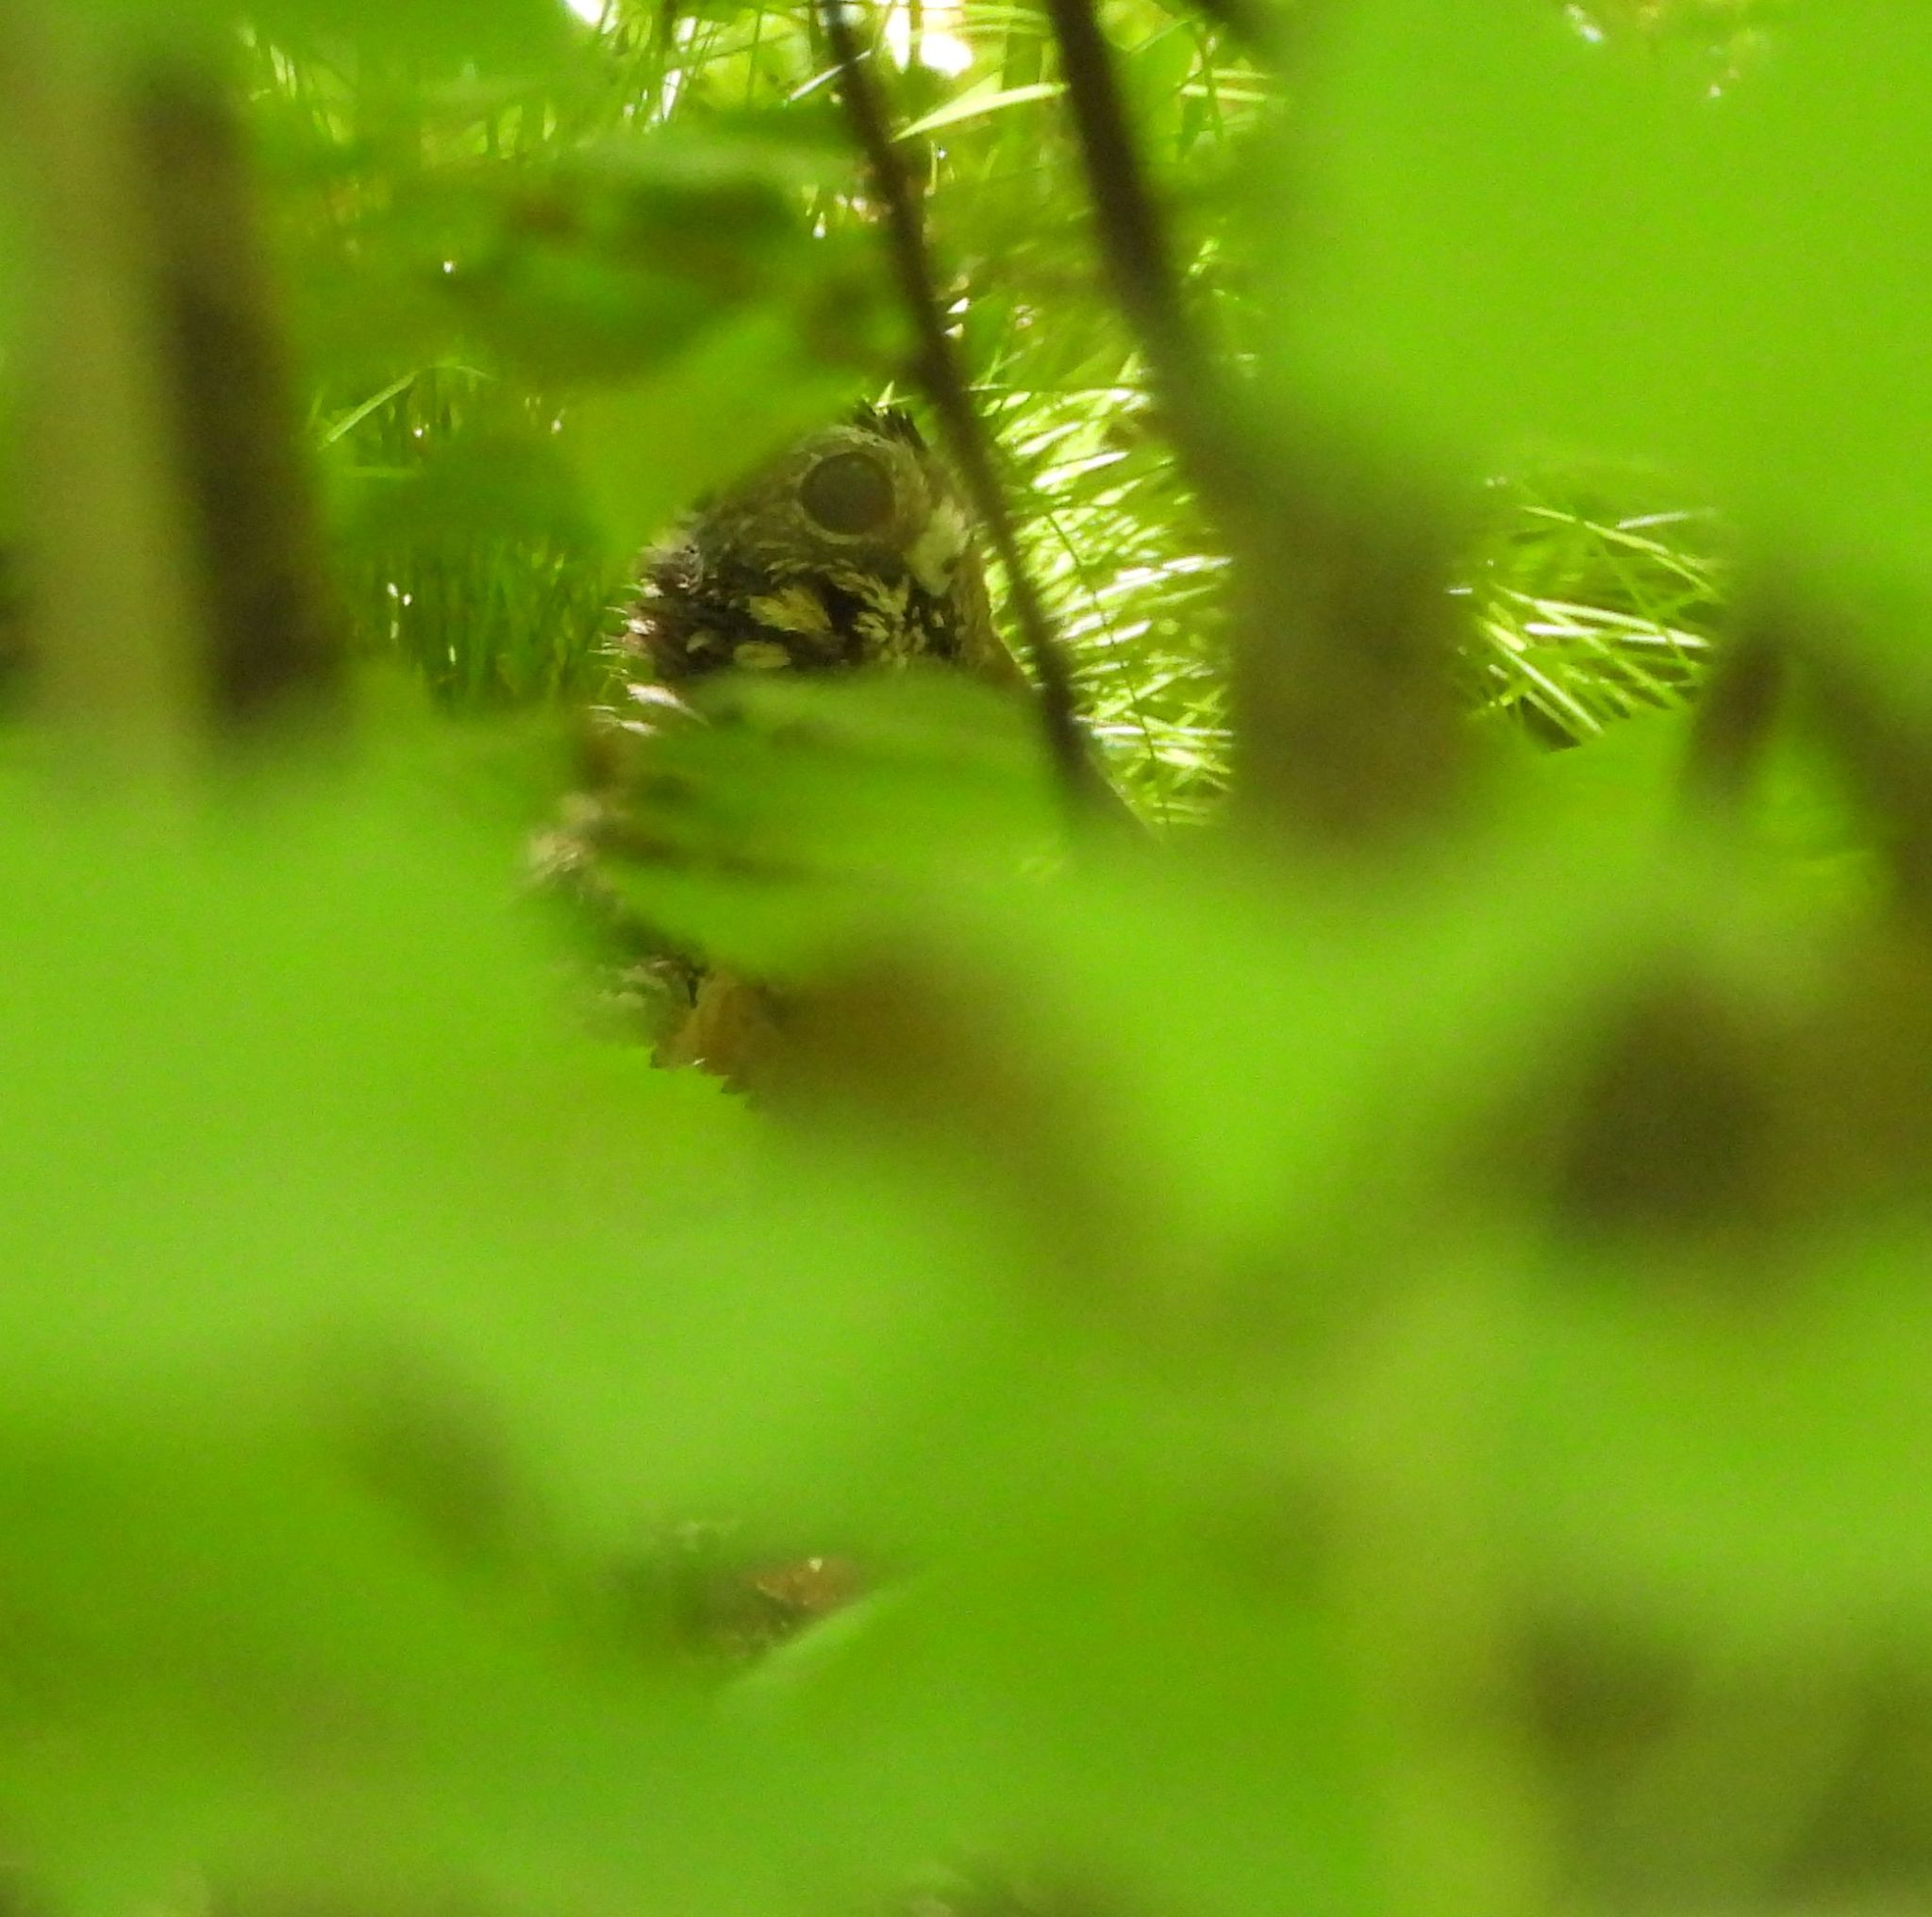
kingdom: Animalia
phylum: Chordata
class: Aves
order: Charadriiformes
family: Scolopacidae
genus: Scolopax
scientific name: Scolopax minor
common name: American woodcock
